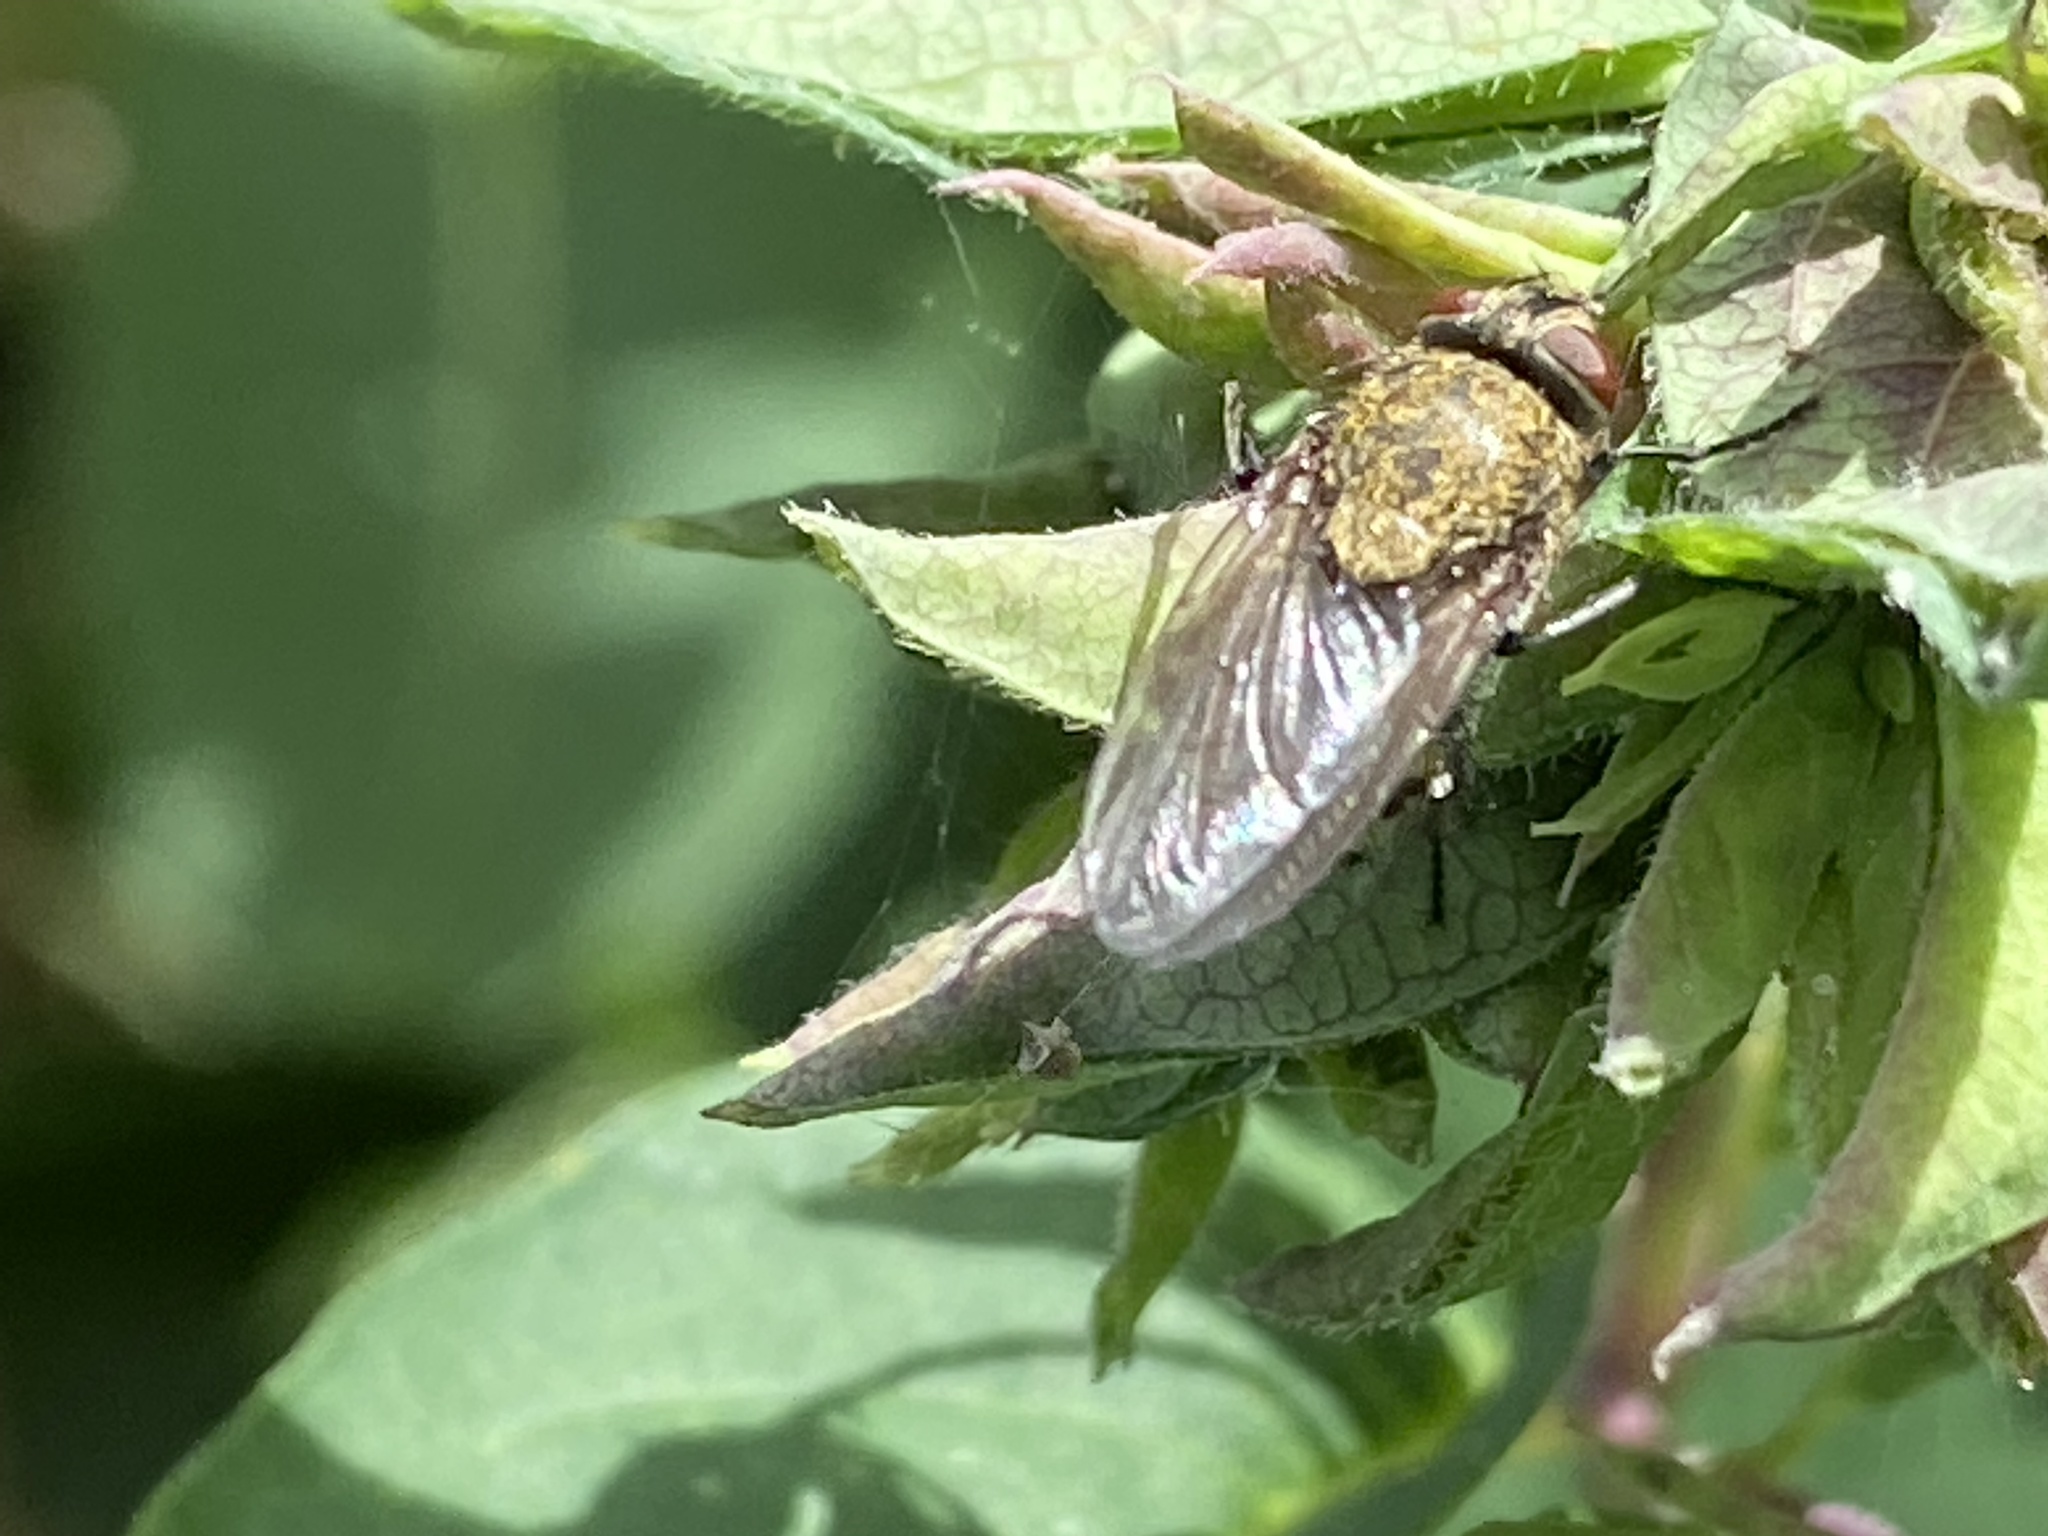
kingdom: Animalia
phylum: Arthropoda
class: Insecta
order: Diptera
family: Polleniidae
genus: Pollenia
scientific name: Pollenia
